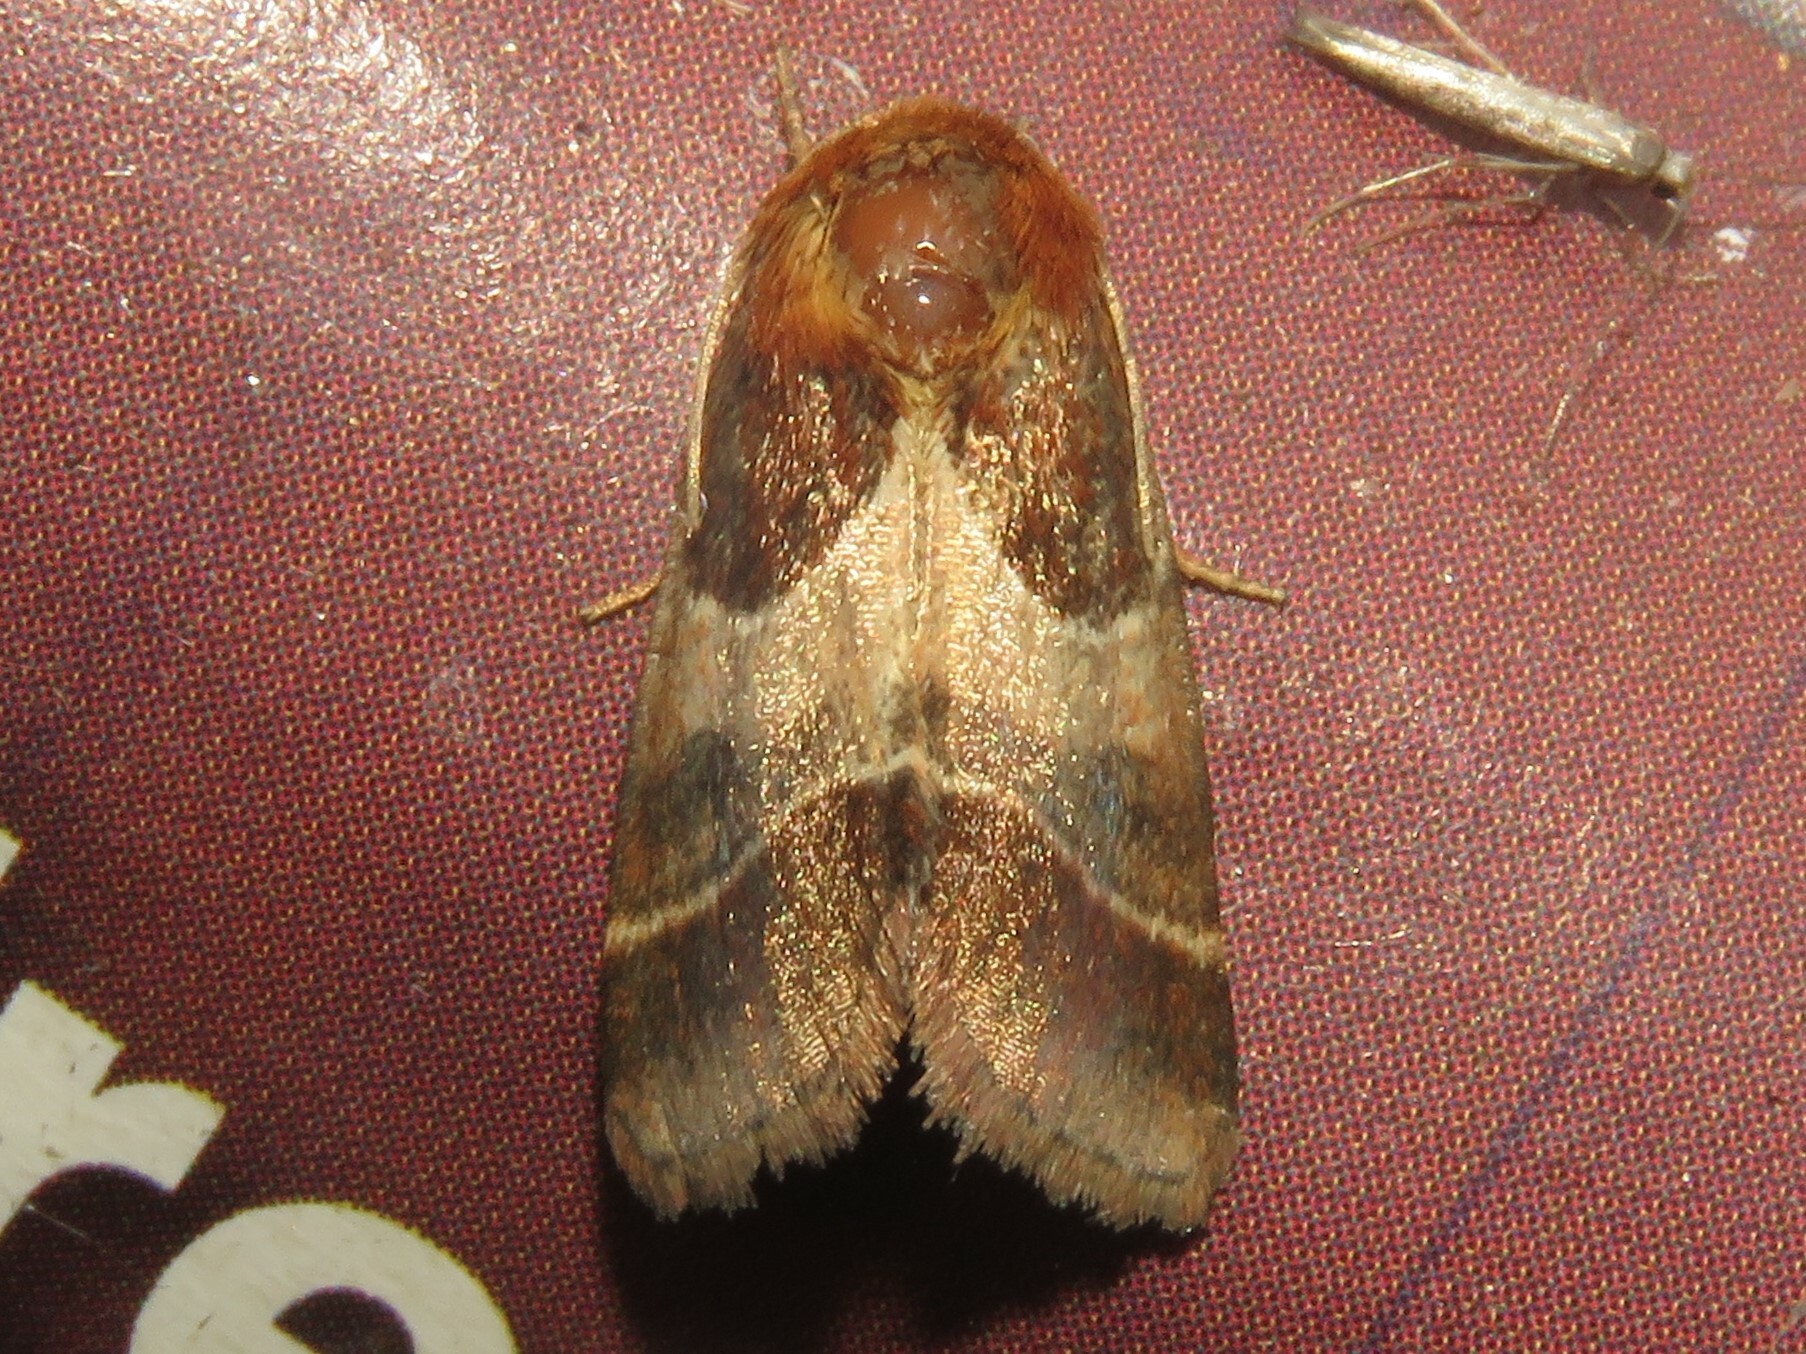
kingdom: Animalia
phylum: Arthropoda
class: Insecta
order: Lepidoptera
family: Noctuidae
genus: Schinia
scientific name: Schinia arcigera
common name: Arcigera flower moth
